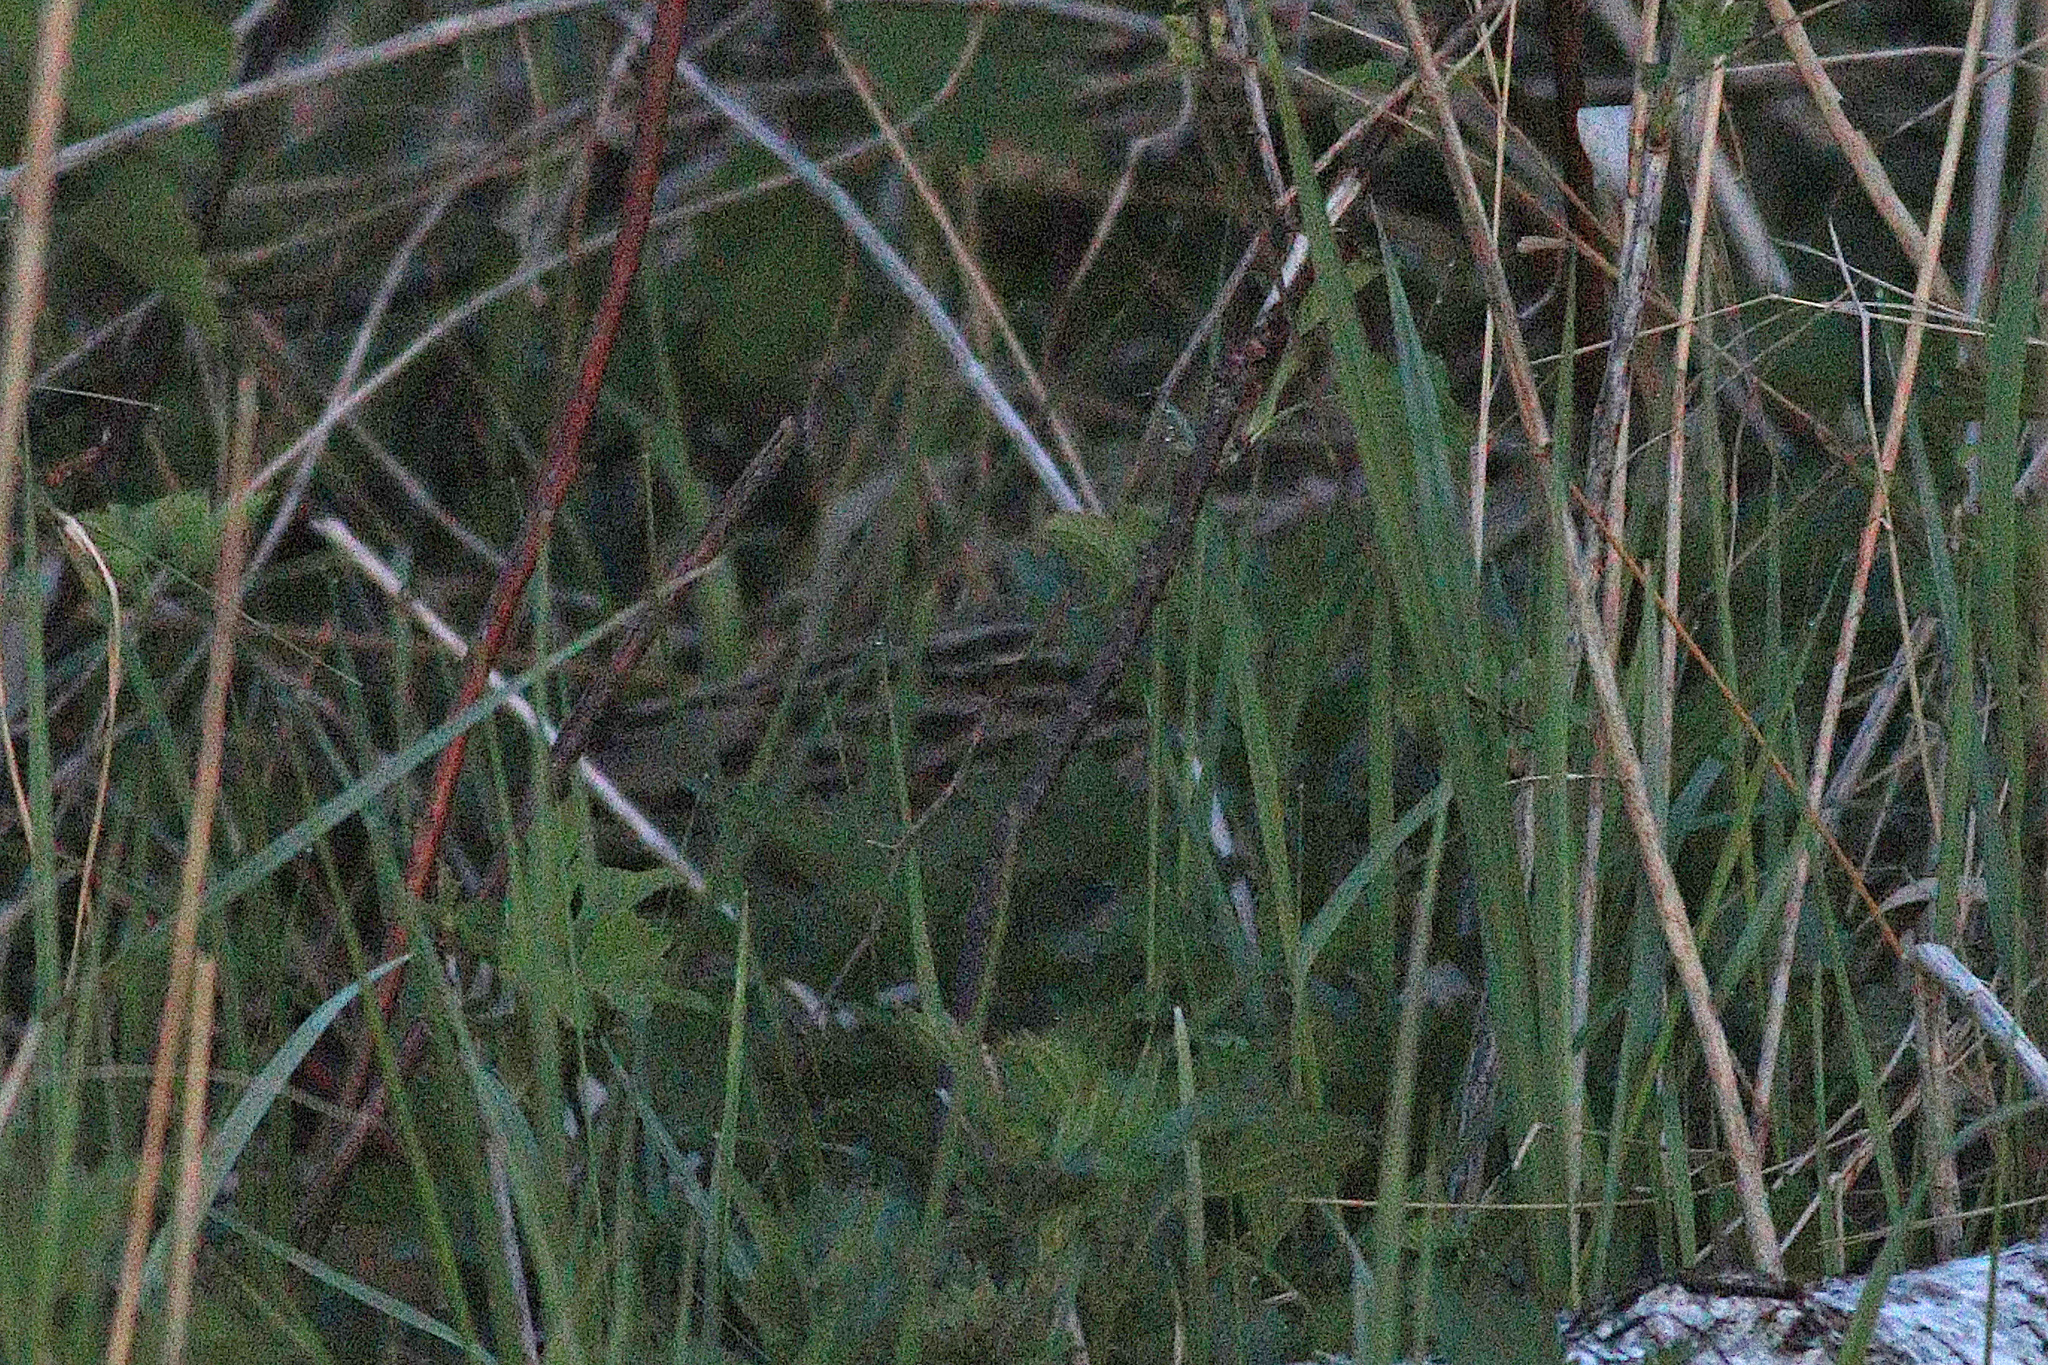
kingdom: Animalia
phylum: Chordata
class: Aves
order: Gruiformes
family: Rallidae
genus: Crex
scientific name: Crex crex
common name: Corn crake
